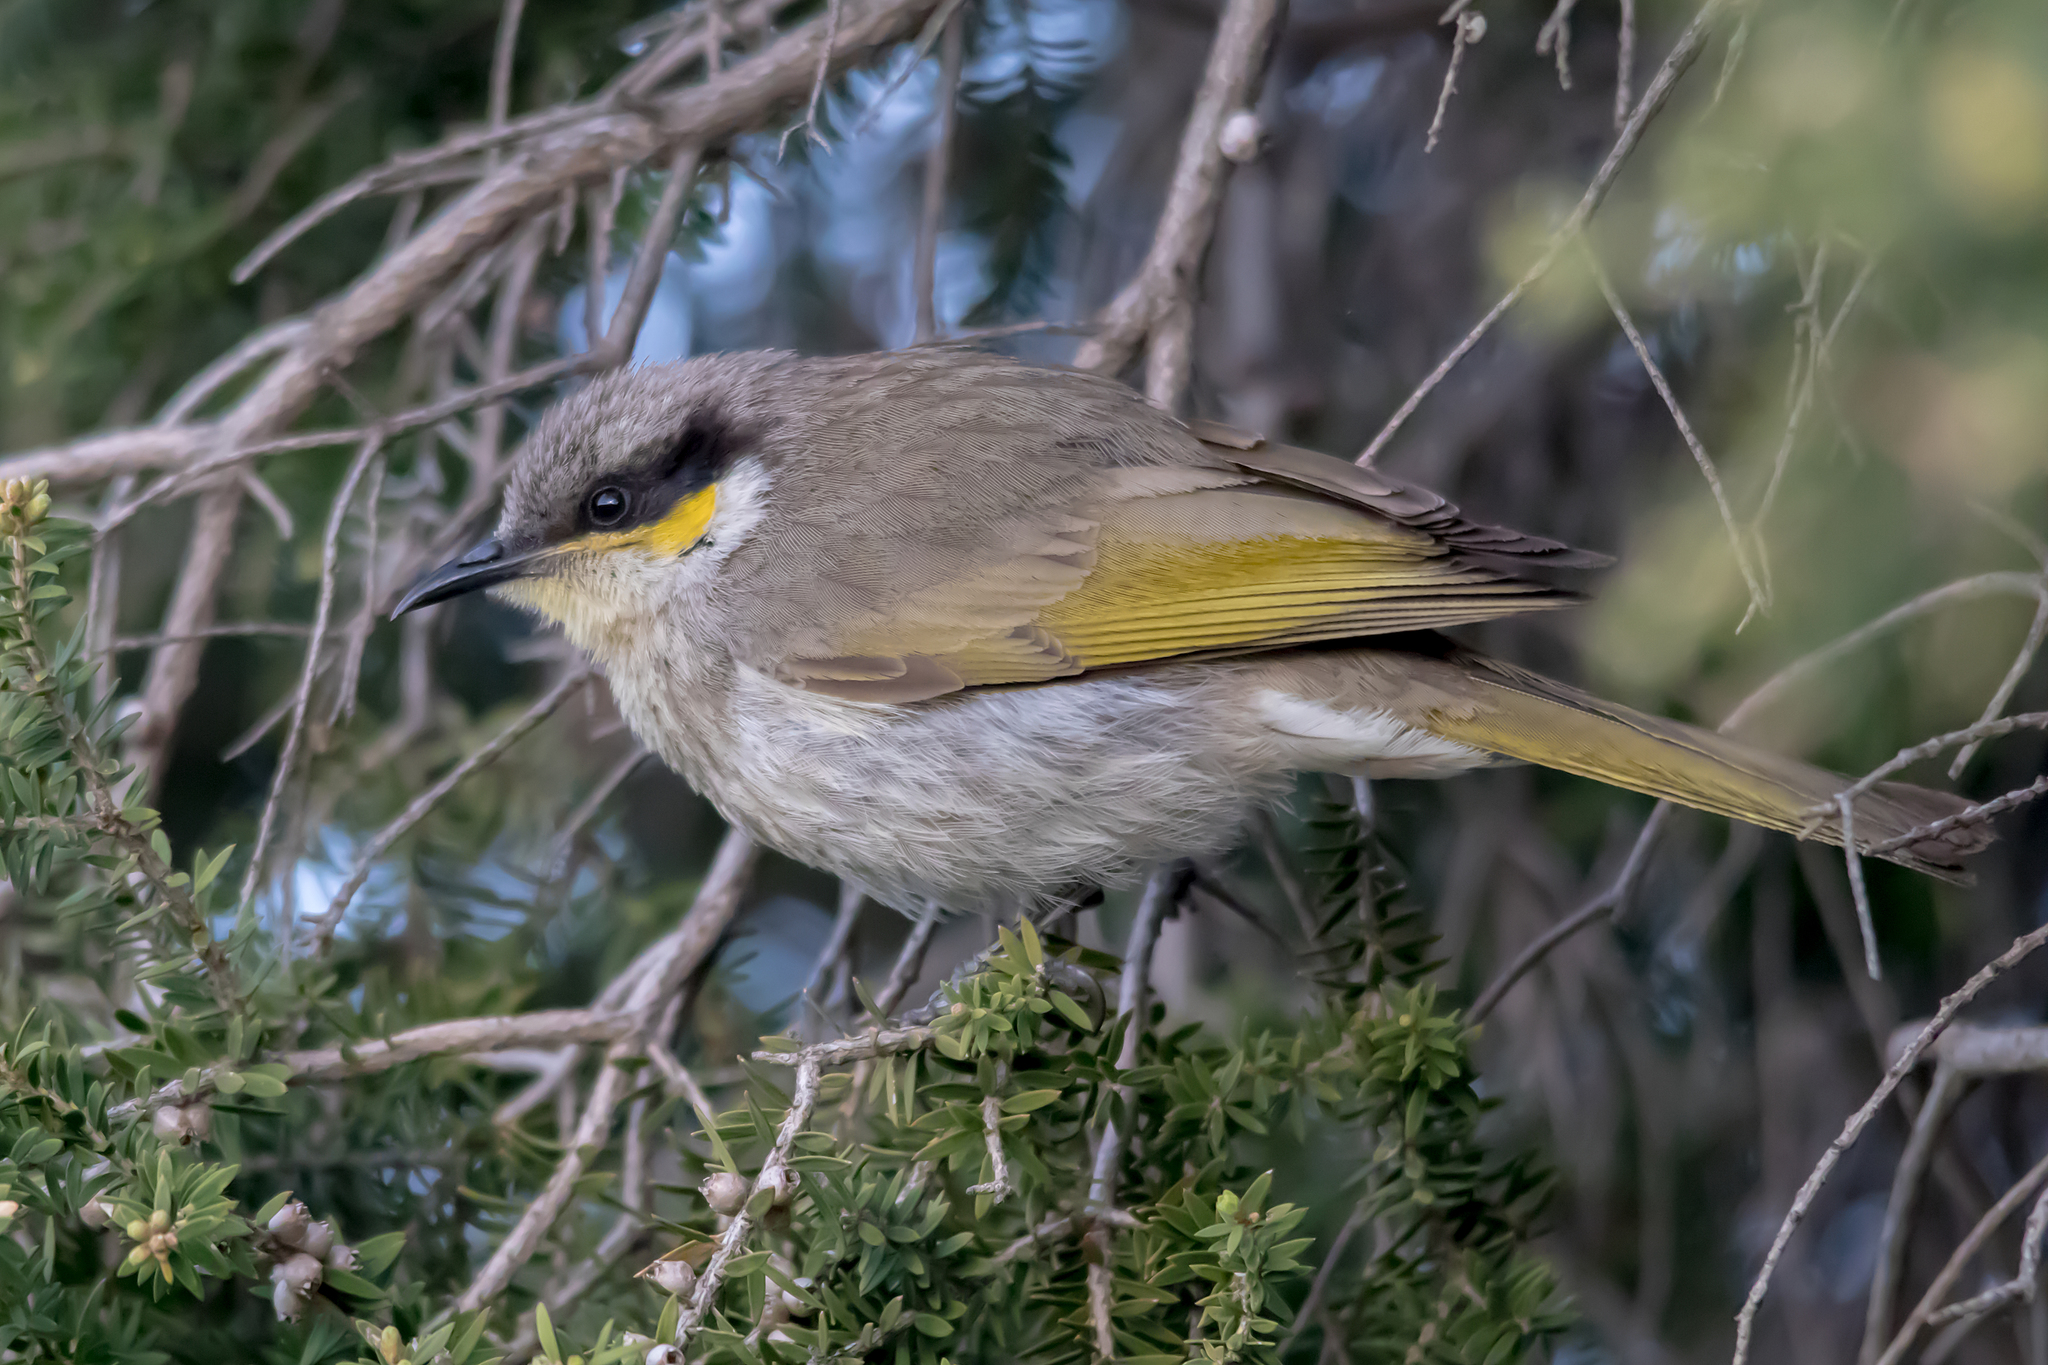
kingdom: Animalia
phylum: Chordata
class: Aves
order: Passeriformes
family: Meliphagidae
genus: Gavicalis
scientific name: Gavicalis virescens
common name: Singing honeyeater
